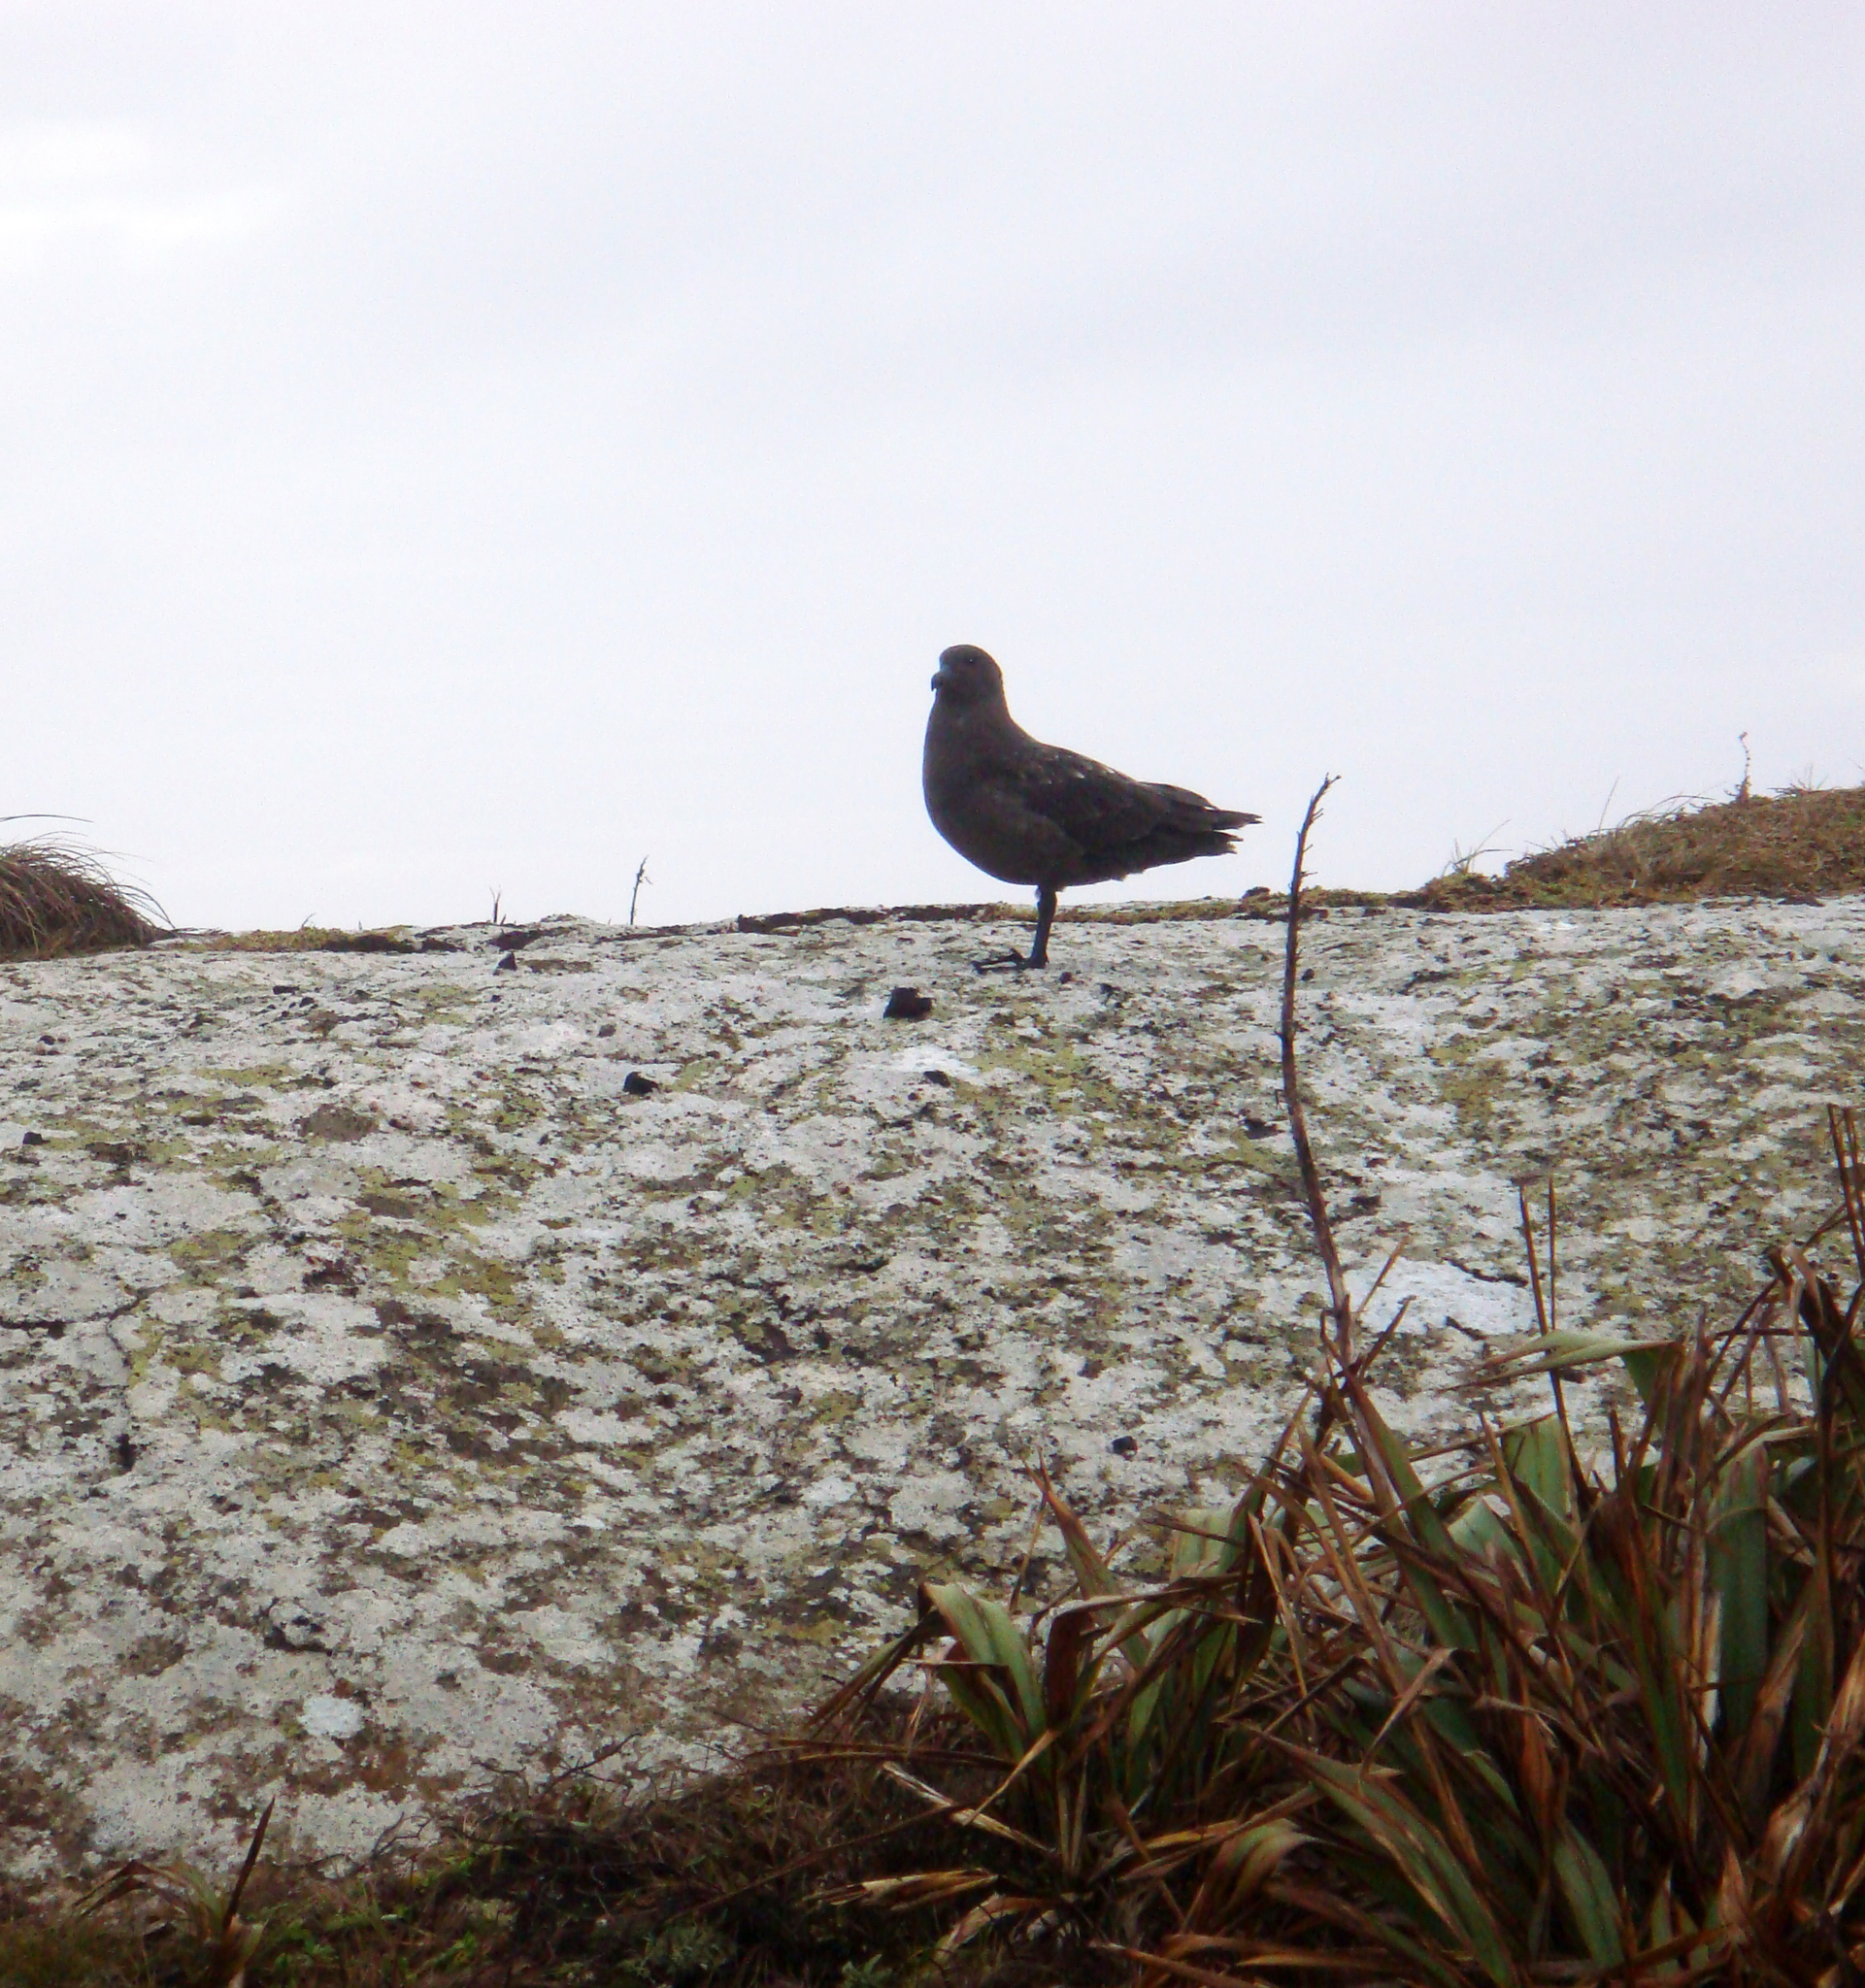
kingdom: Animalia
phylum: Chordata
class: Aves
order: Charadriiformes
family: Stercorariidae
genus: Stercorarius
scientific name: Stercorarius antarcticus
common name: Brown skua
